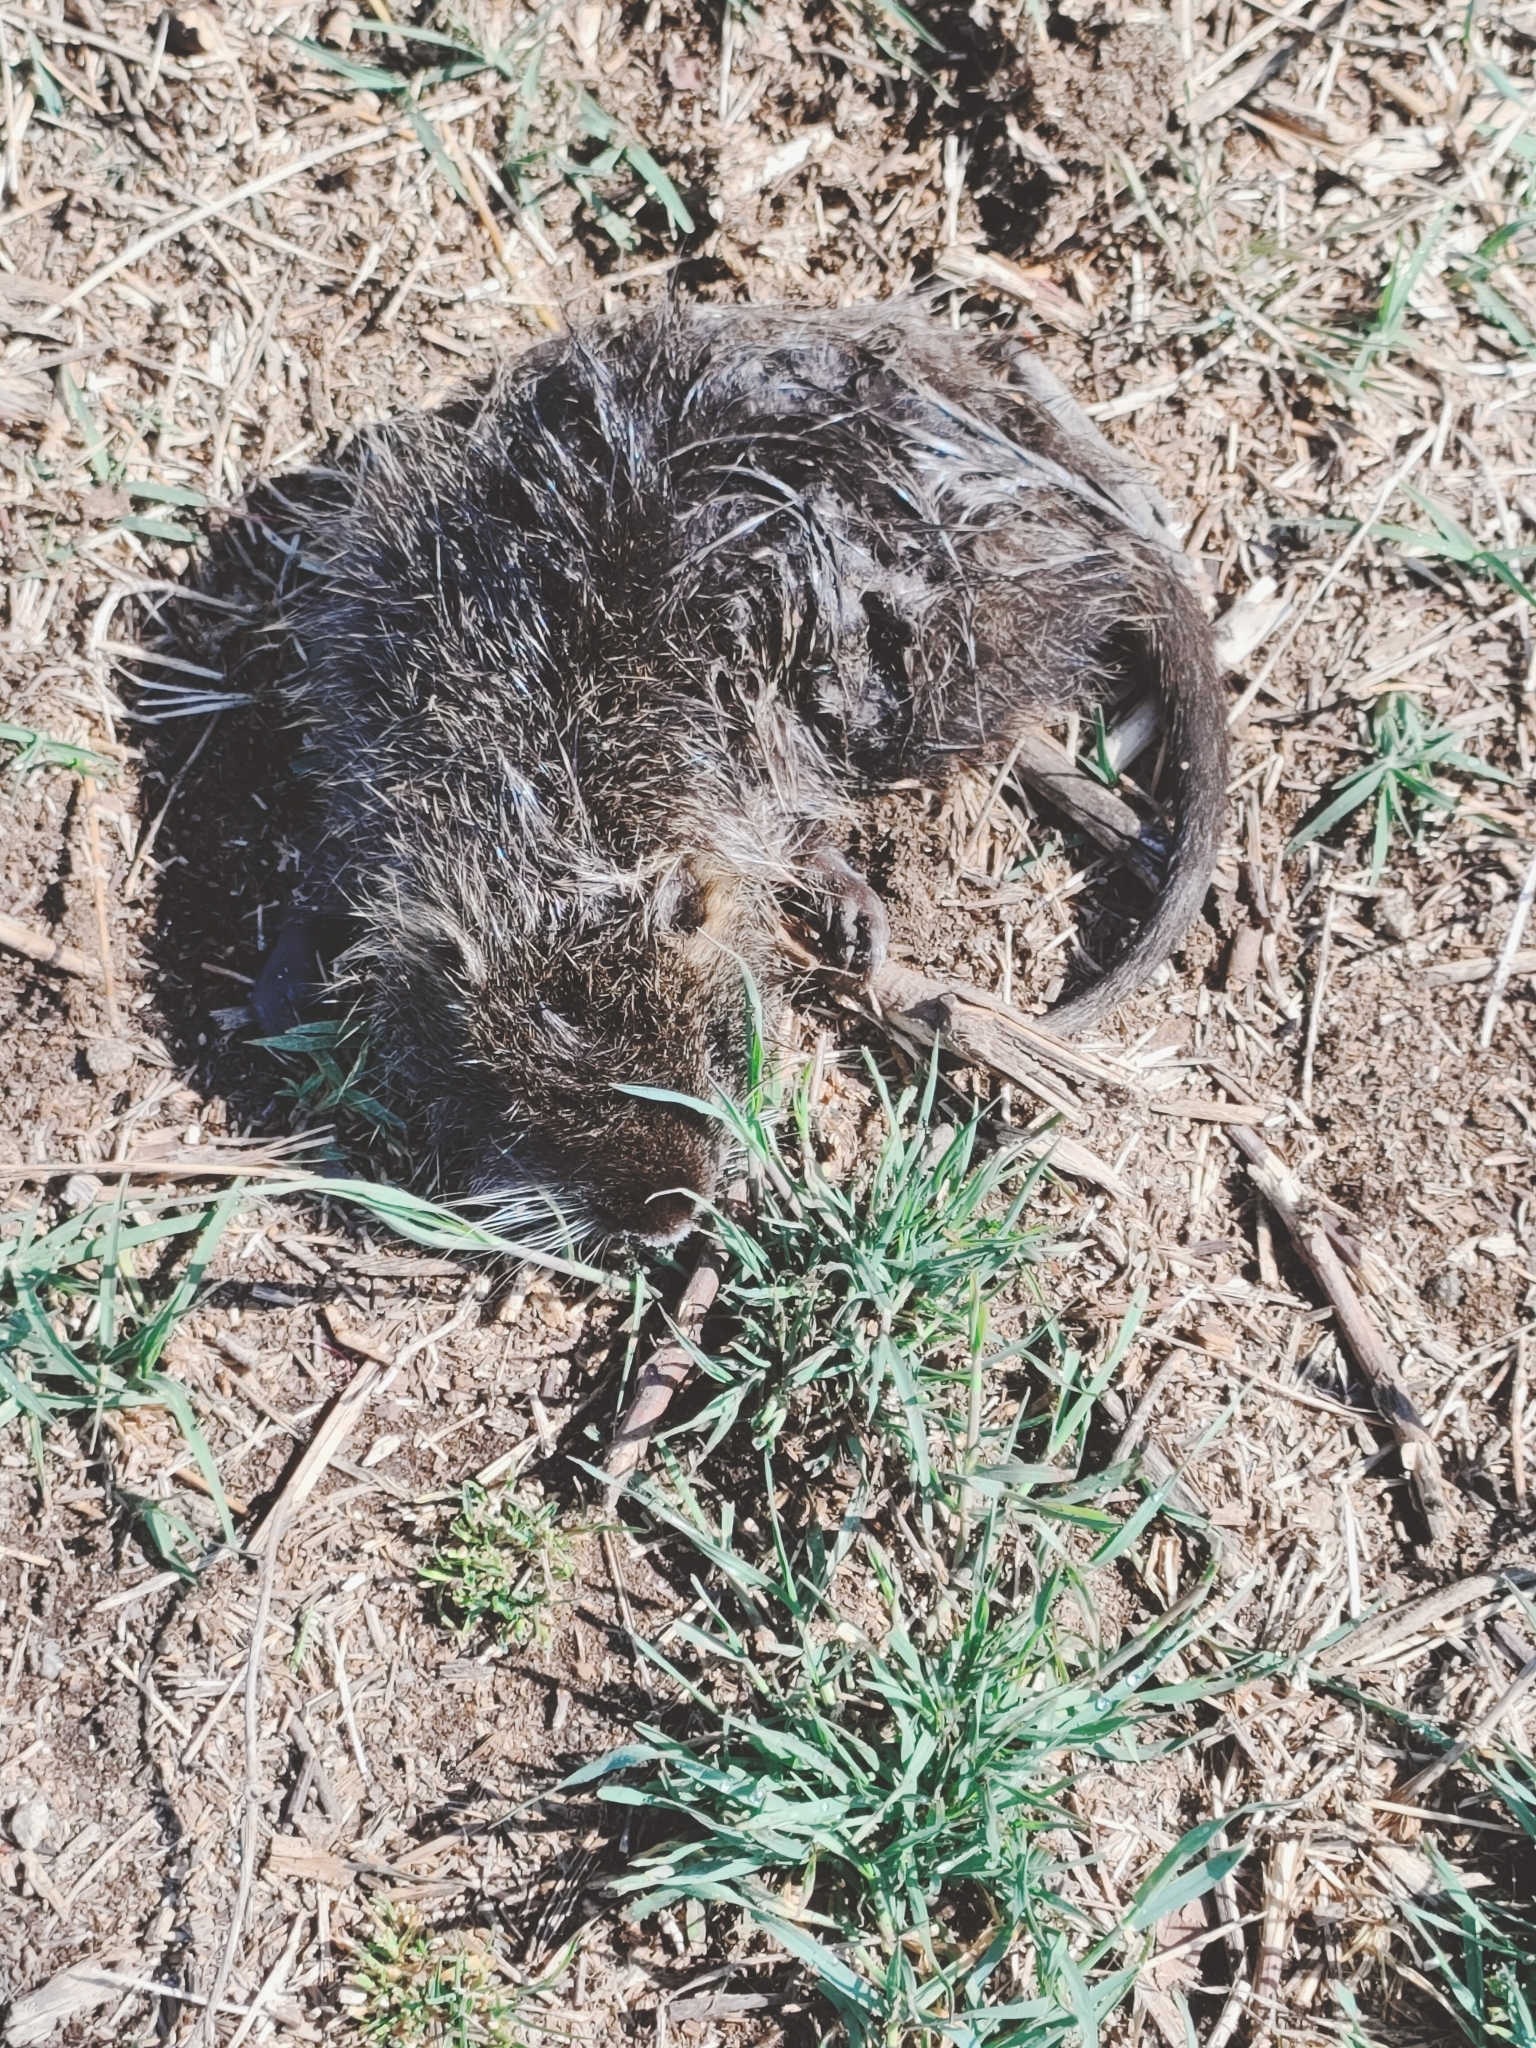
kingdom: Animalia
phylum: Chordata
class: Mammalia
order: Rodentia
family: Myocastoridae
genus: Myocastor
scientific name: Myocastor coypus
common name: Coypu
